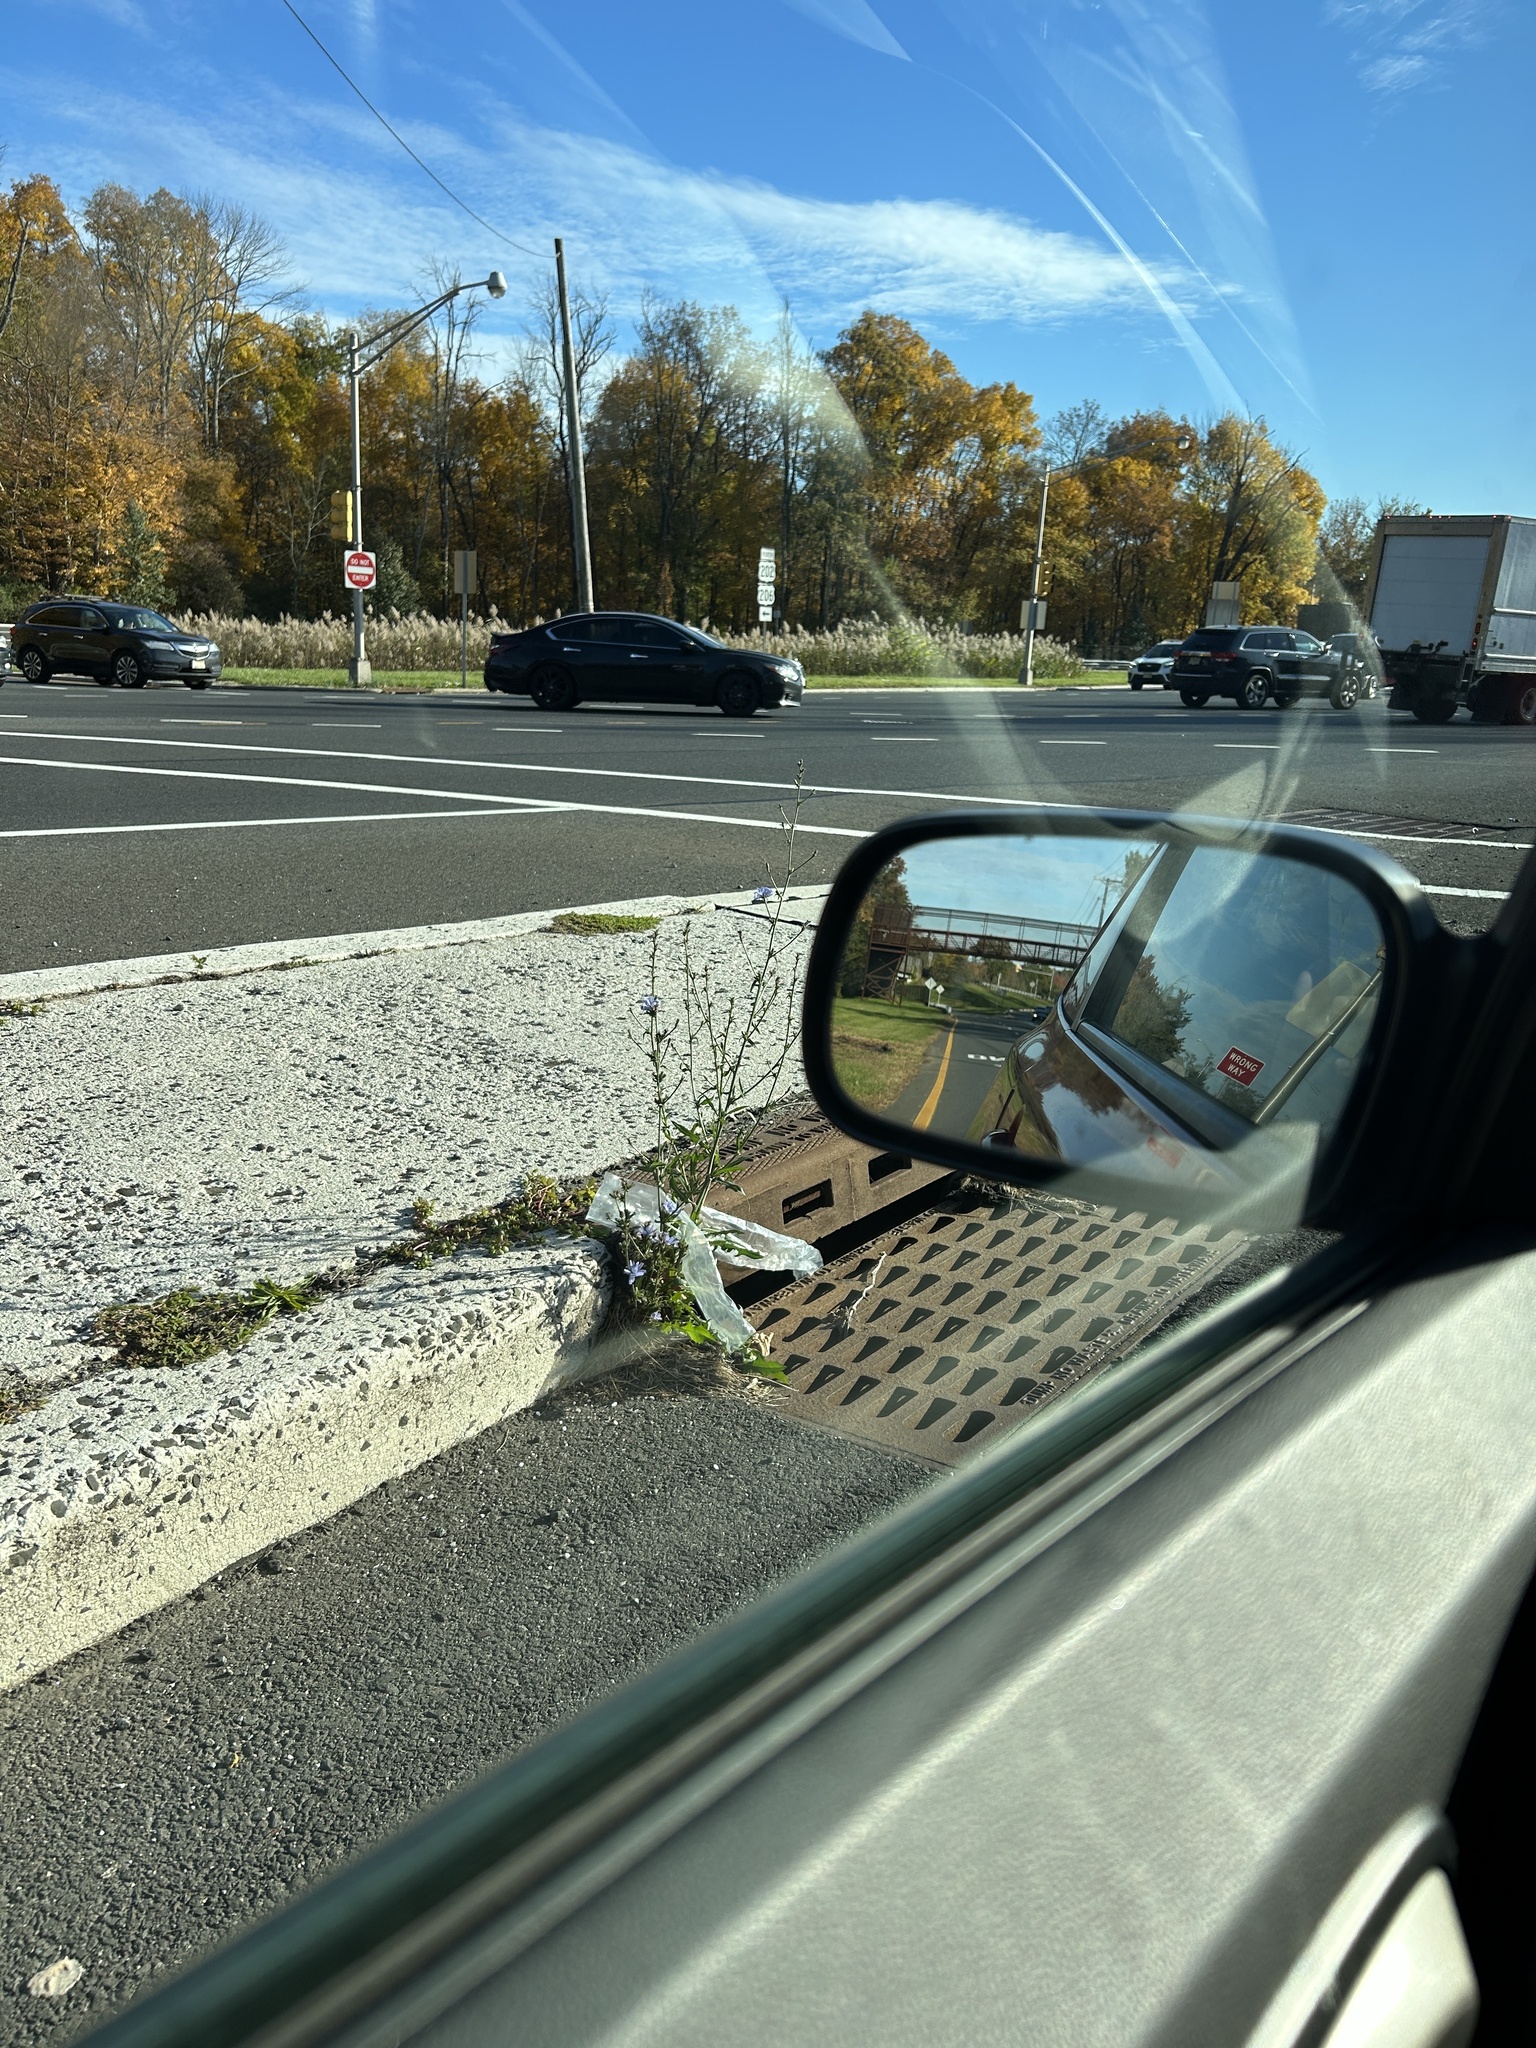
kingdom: Plantae
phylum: Tracheophyta
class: Magnoliopsida
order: Asterales
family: Asteraceae
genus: Cichorium
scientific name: Cichorium intybus
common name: Chicory
